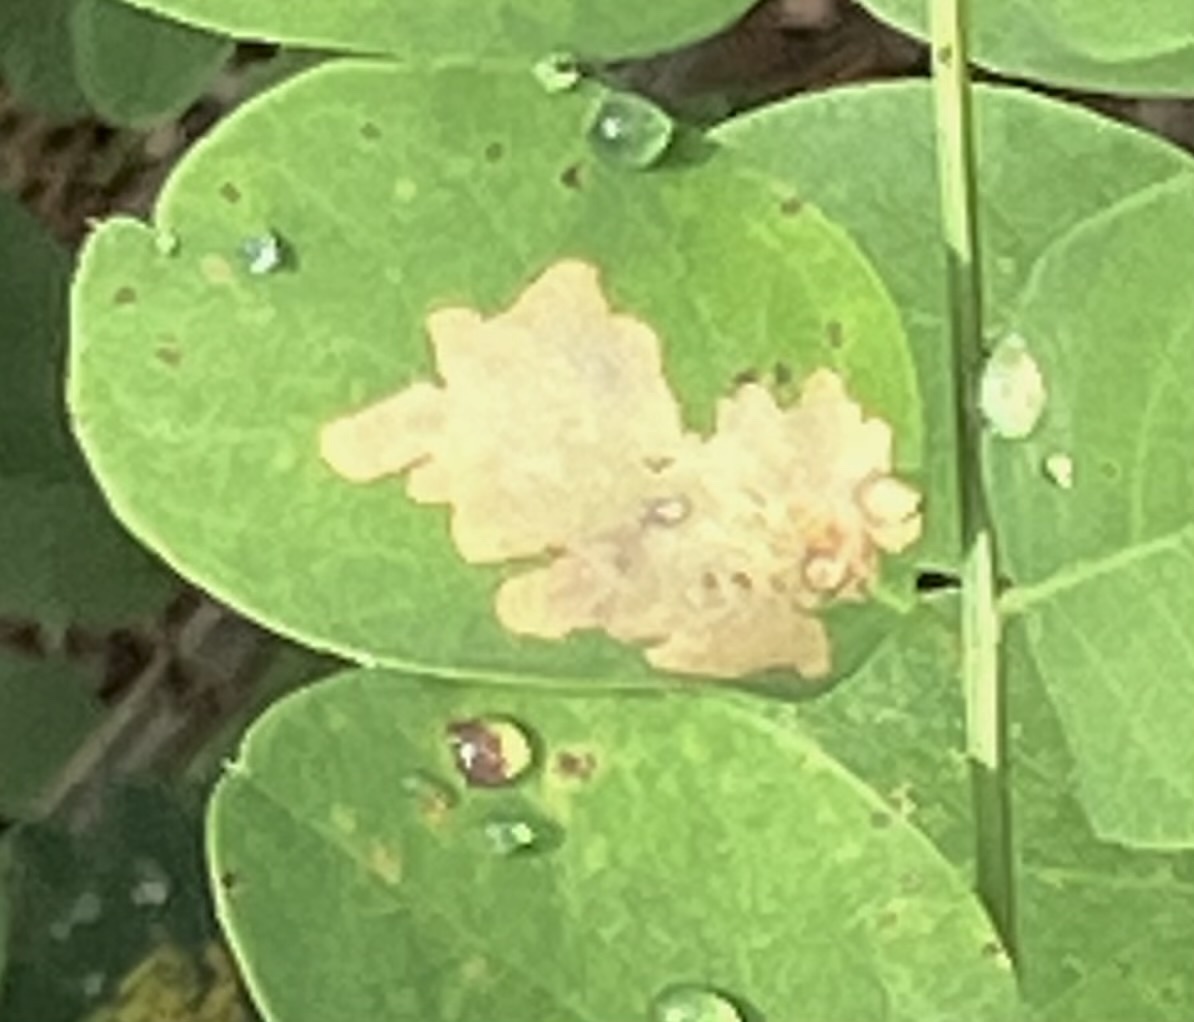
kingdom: Animalia
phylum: Arthropoda
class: Insecta
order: Lepidoptera
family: Gracillariidae
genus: Parectopa
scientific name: Parectopa robiniella
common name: Locust digitate leafminer
